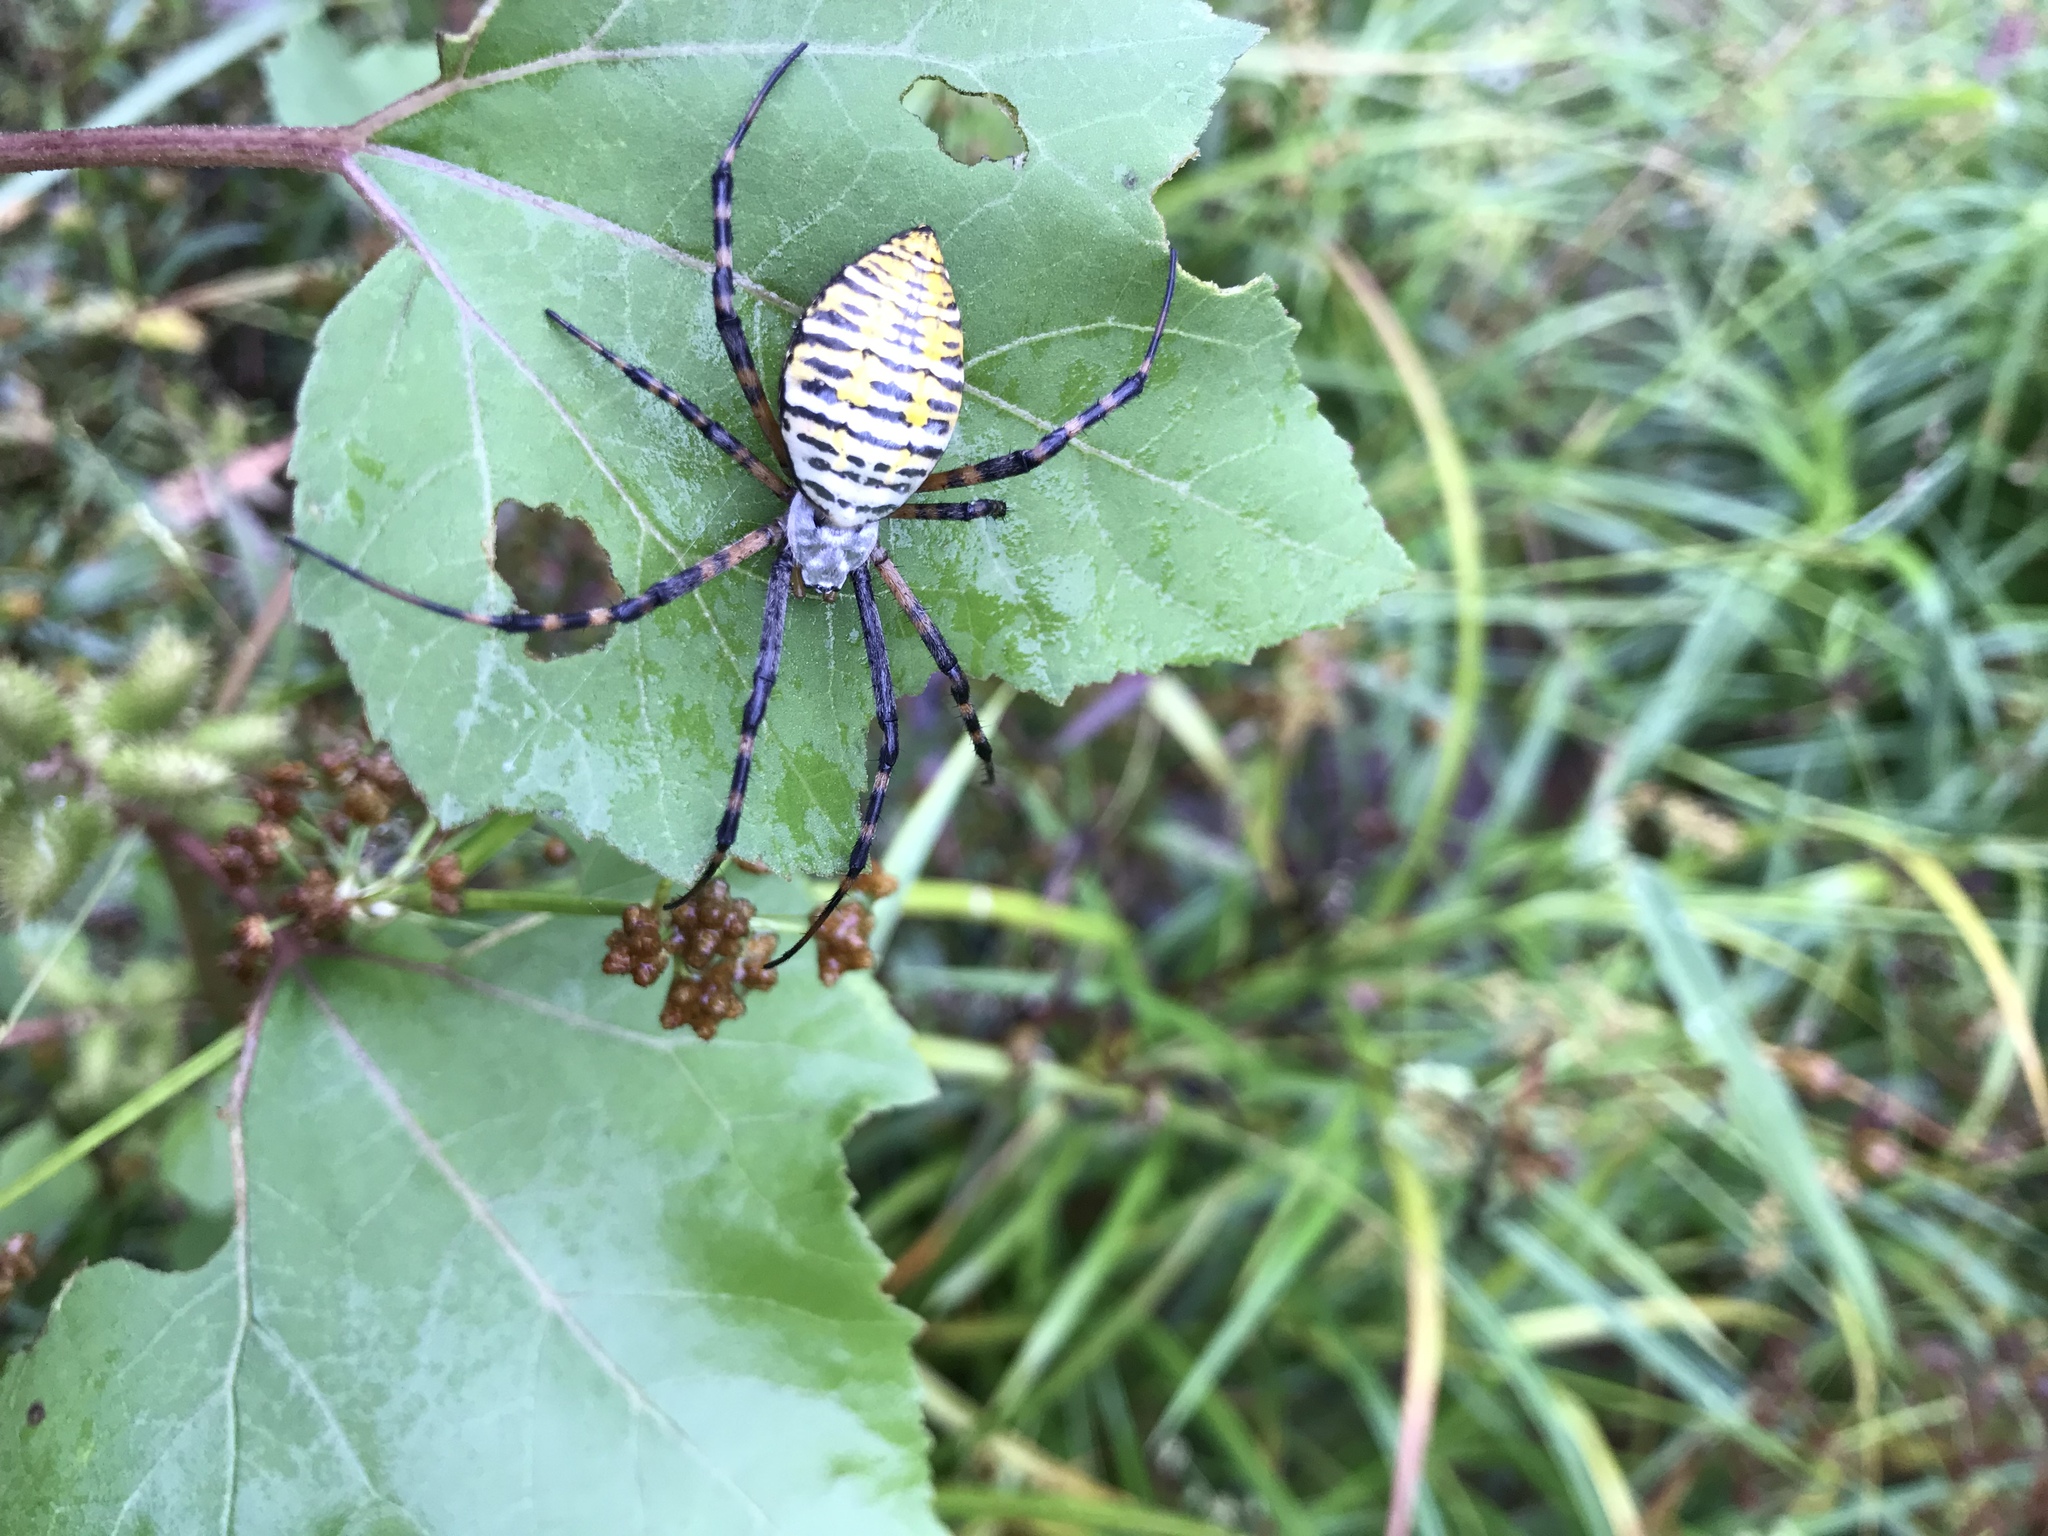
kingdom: Animalia
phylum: Arthropoda
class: Arachnida
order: Araneae
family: Araneidae
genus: Argiope
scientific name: Argiope trifasciata
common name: Banded garden spider
